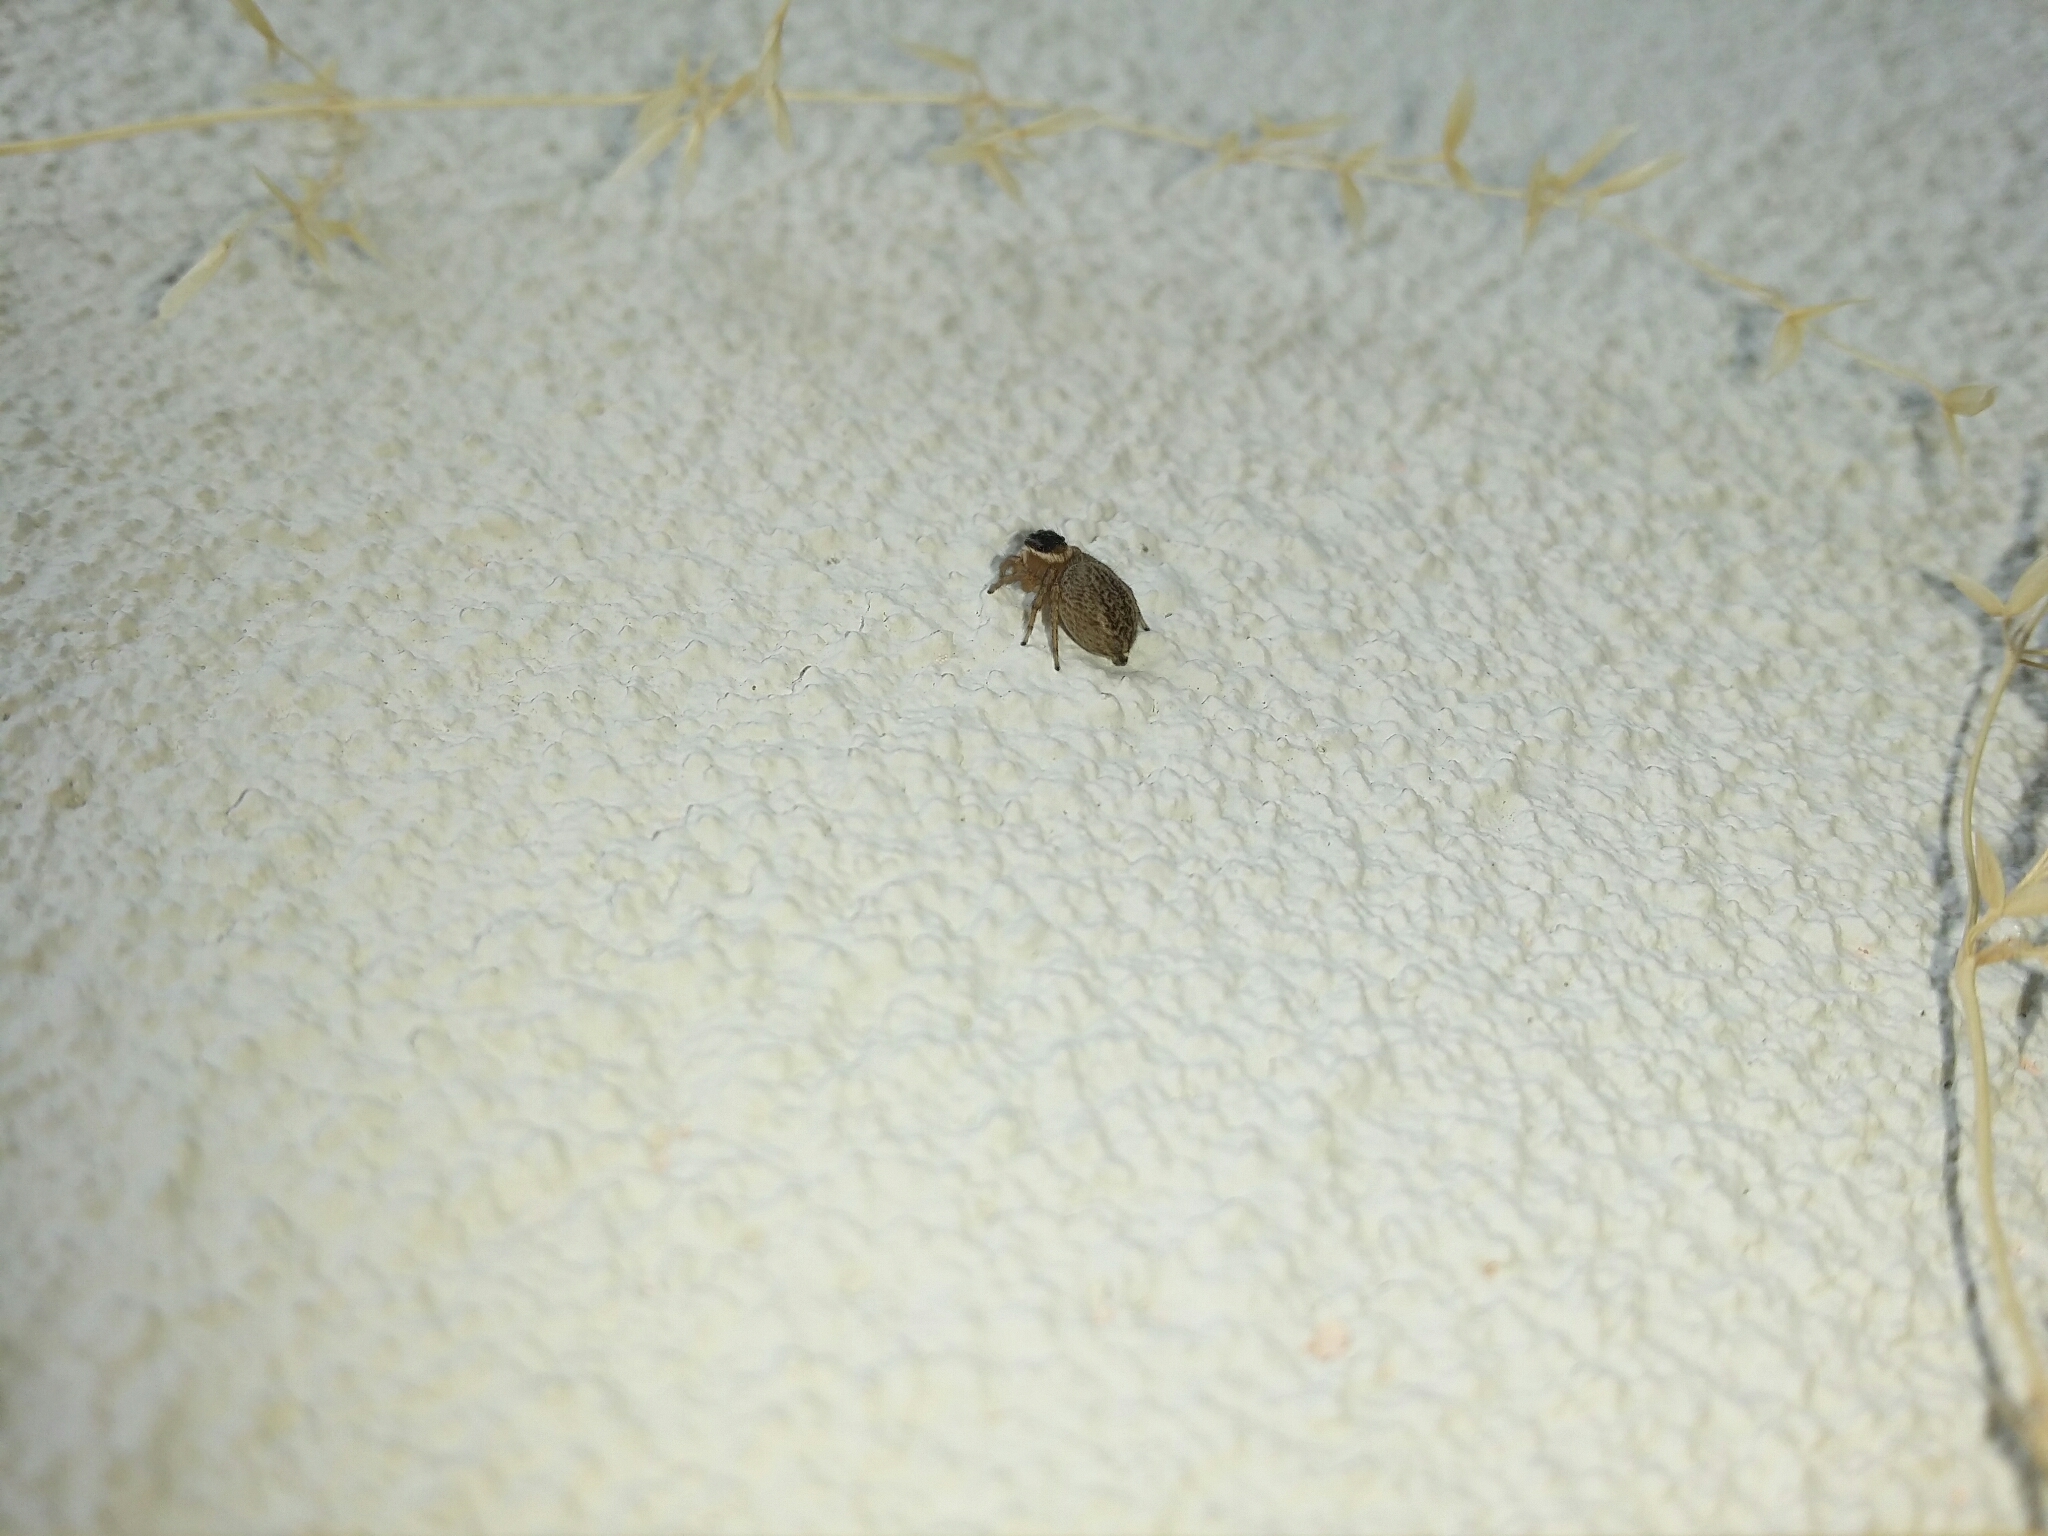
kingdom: Animalia
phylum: Arthropoda
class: Arachnida
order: Araneae
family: Salticidae
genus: Maratus
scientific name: Maratus griseus
